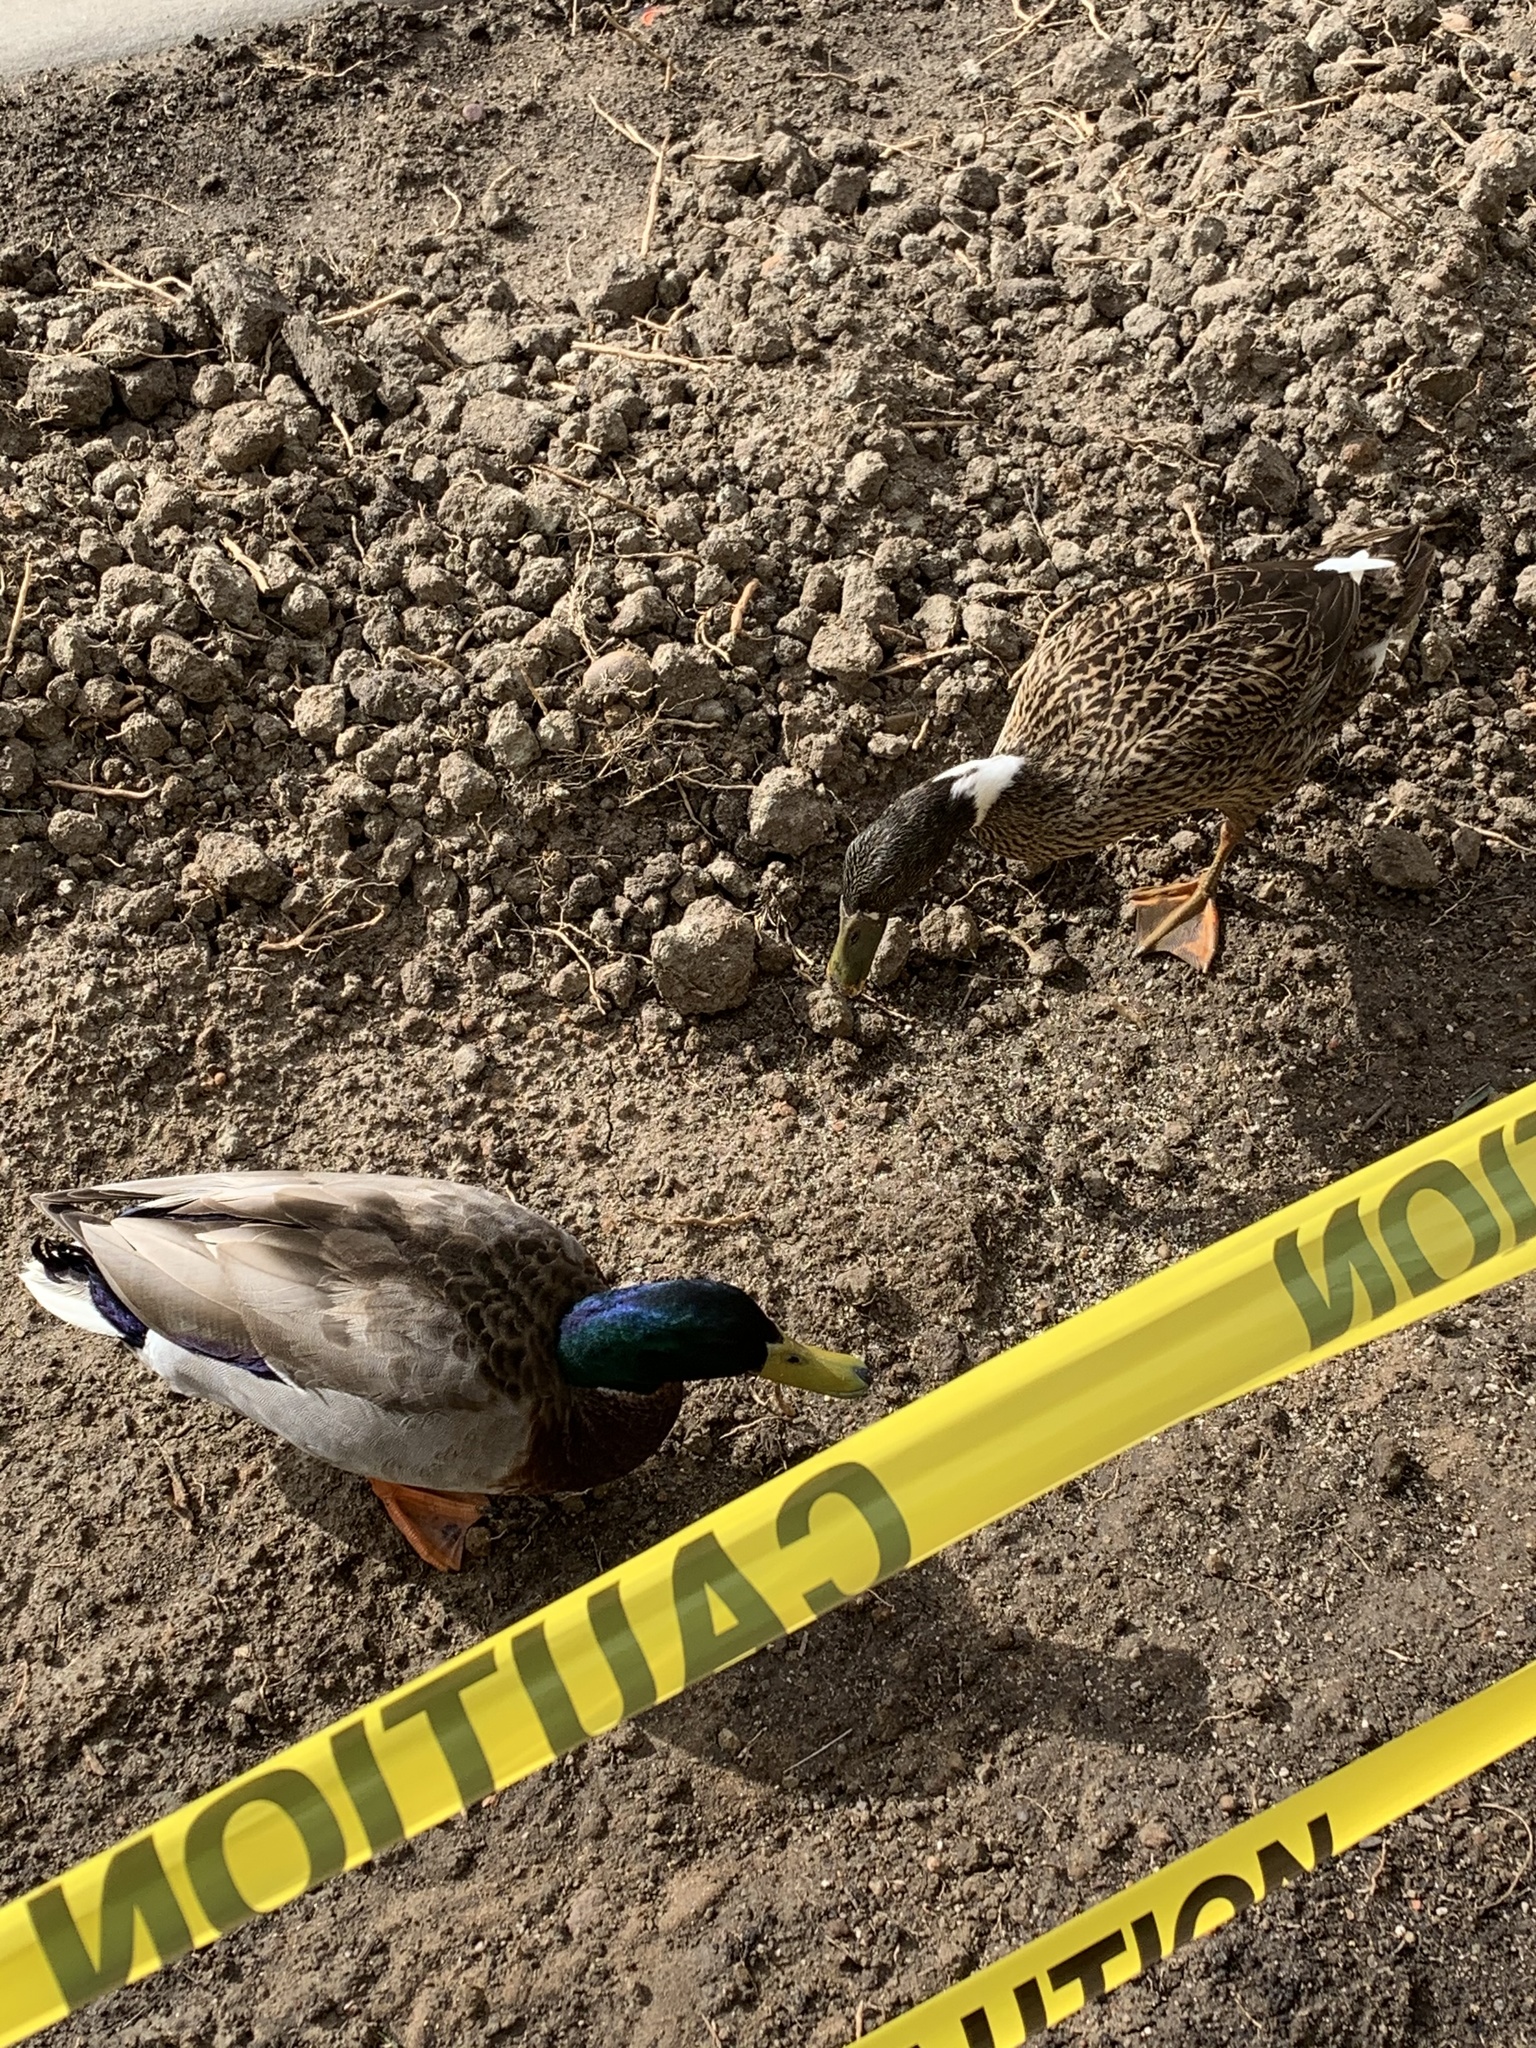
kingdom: Animalia
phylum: Chordata
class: Aves
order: Anseriformes
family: Anatidae
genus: Anas
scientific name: Anas platyrhynchos
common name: Mallard
